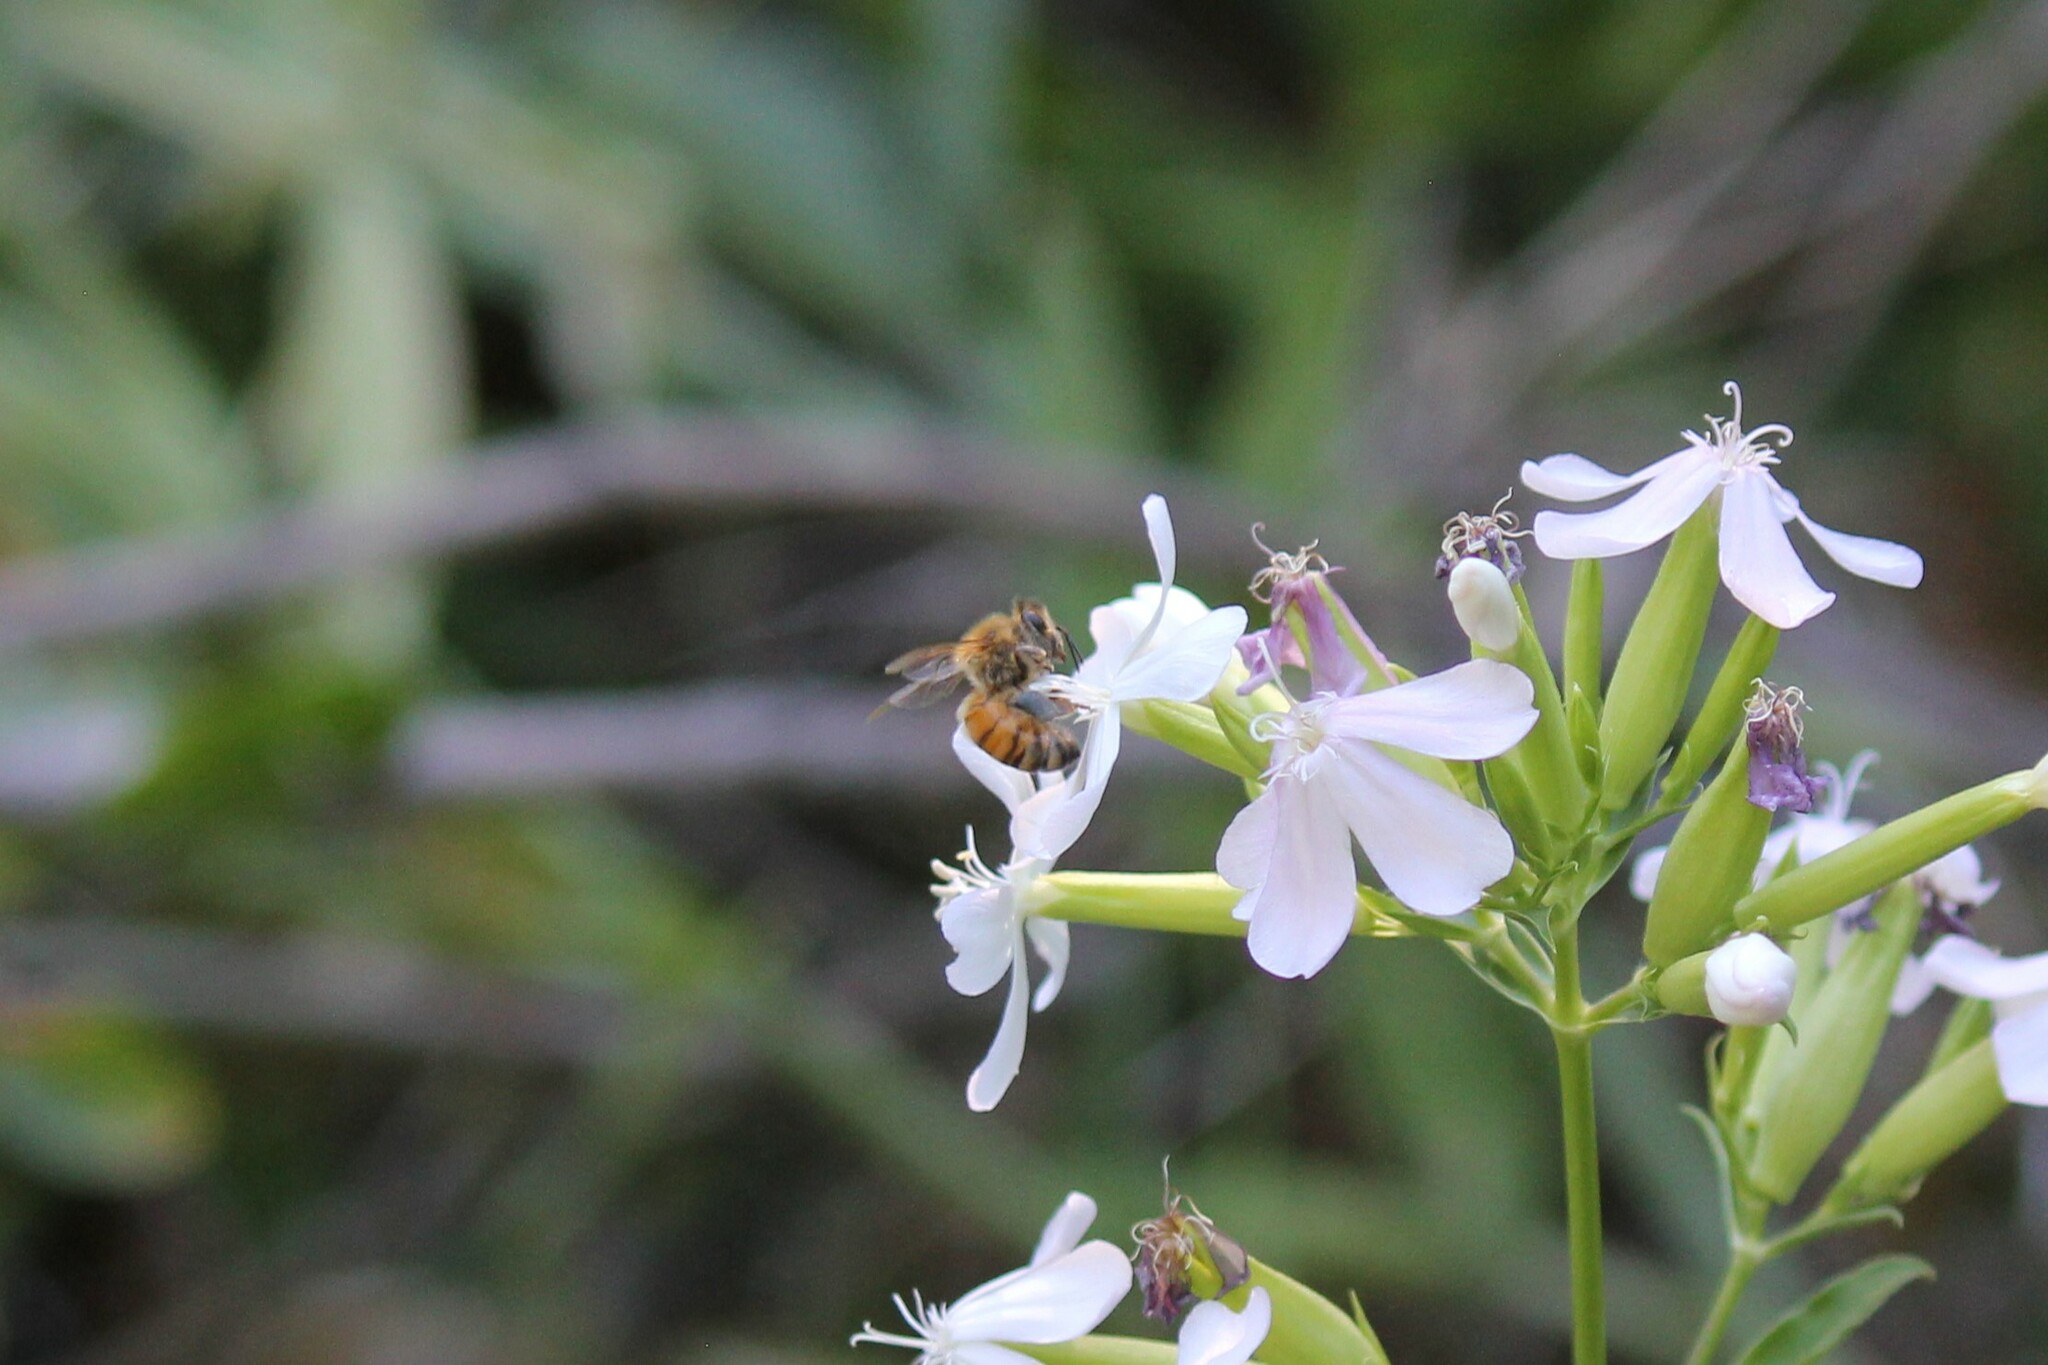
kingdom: Animalia
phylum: Arthropoda
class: Insecta
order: Hymenoptera
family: Apidae
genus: Apis
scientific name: Apis mellifera
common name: Honey bee
